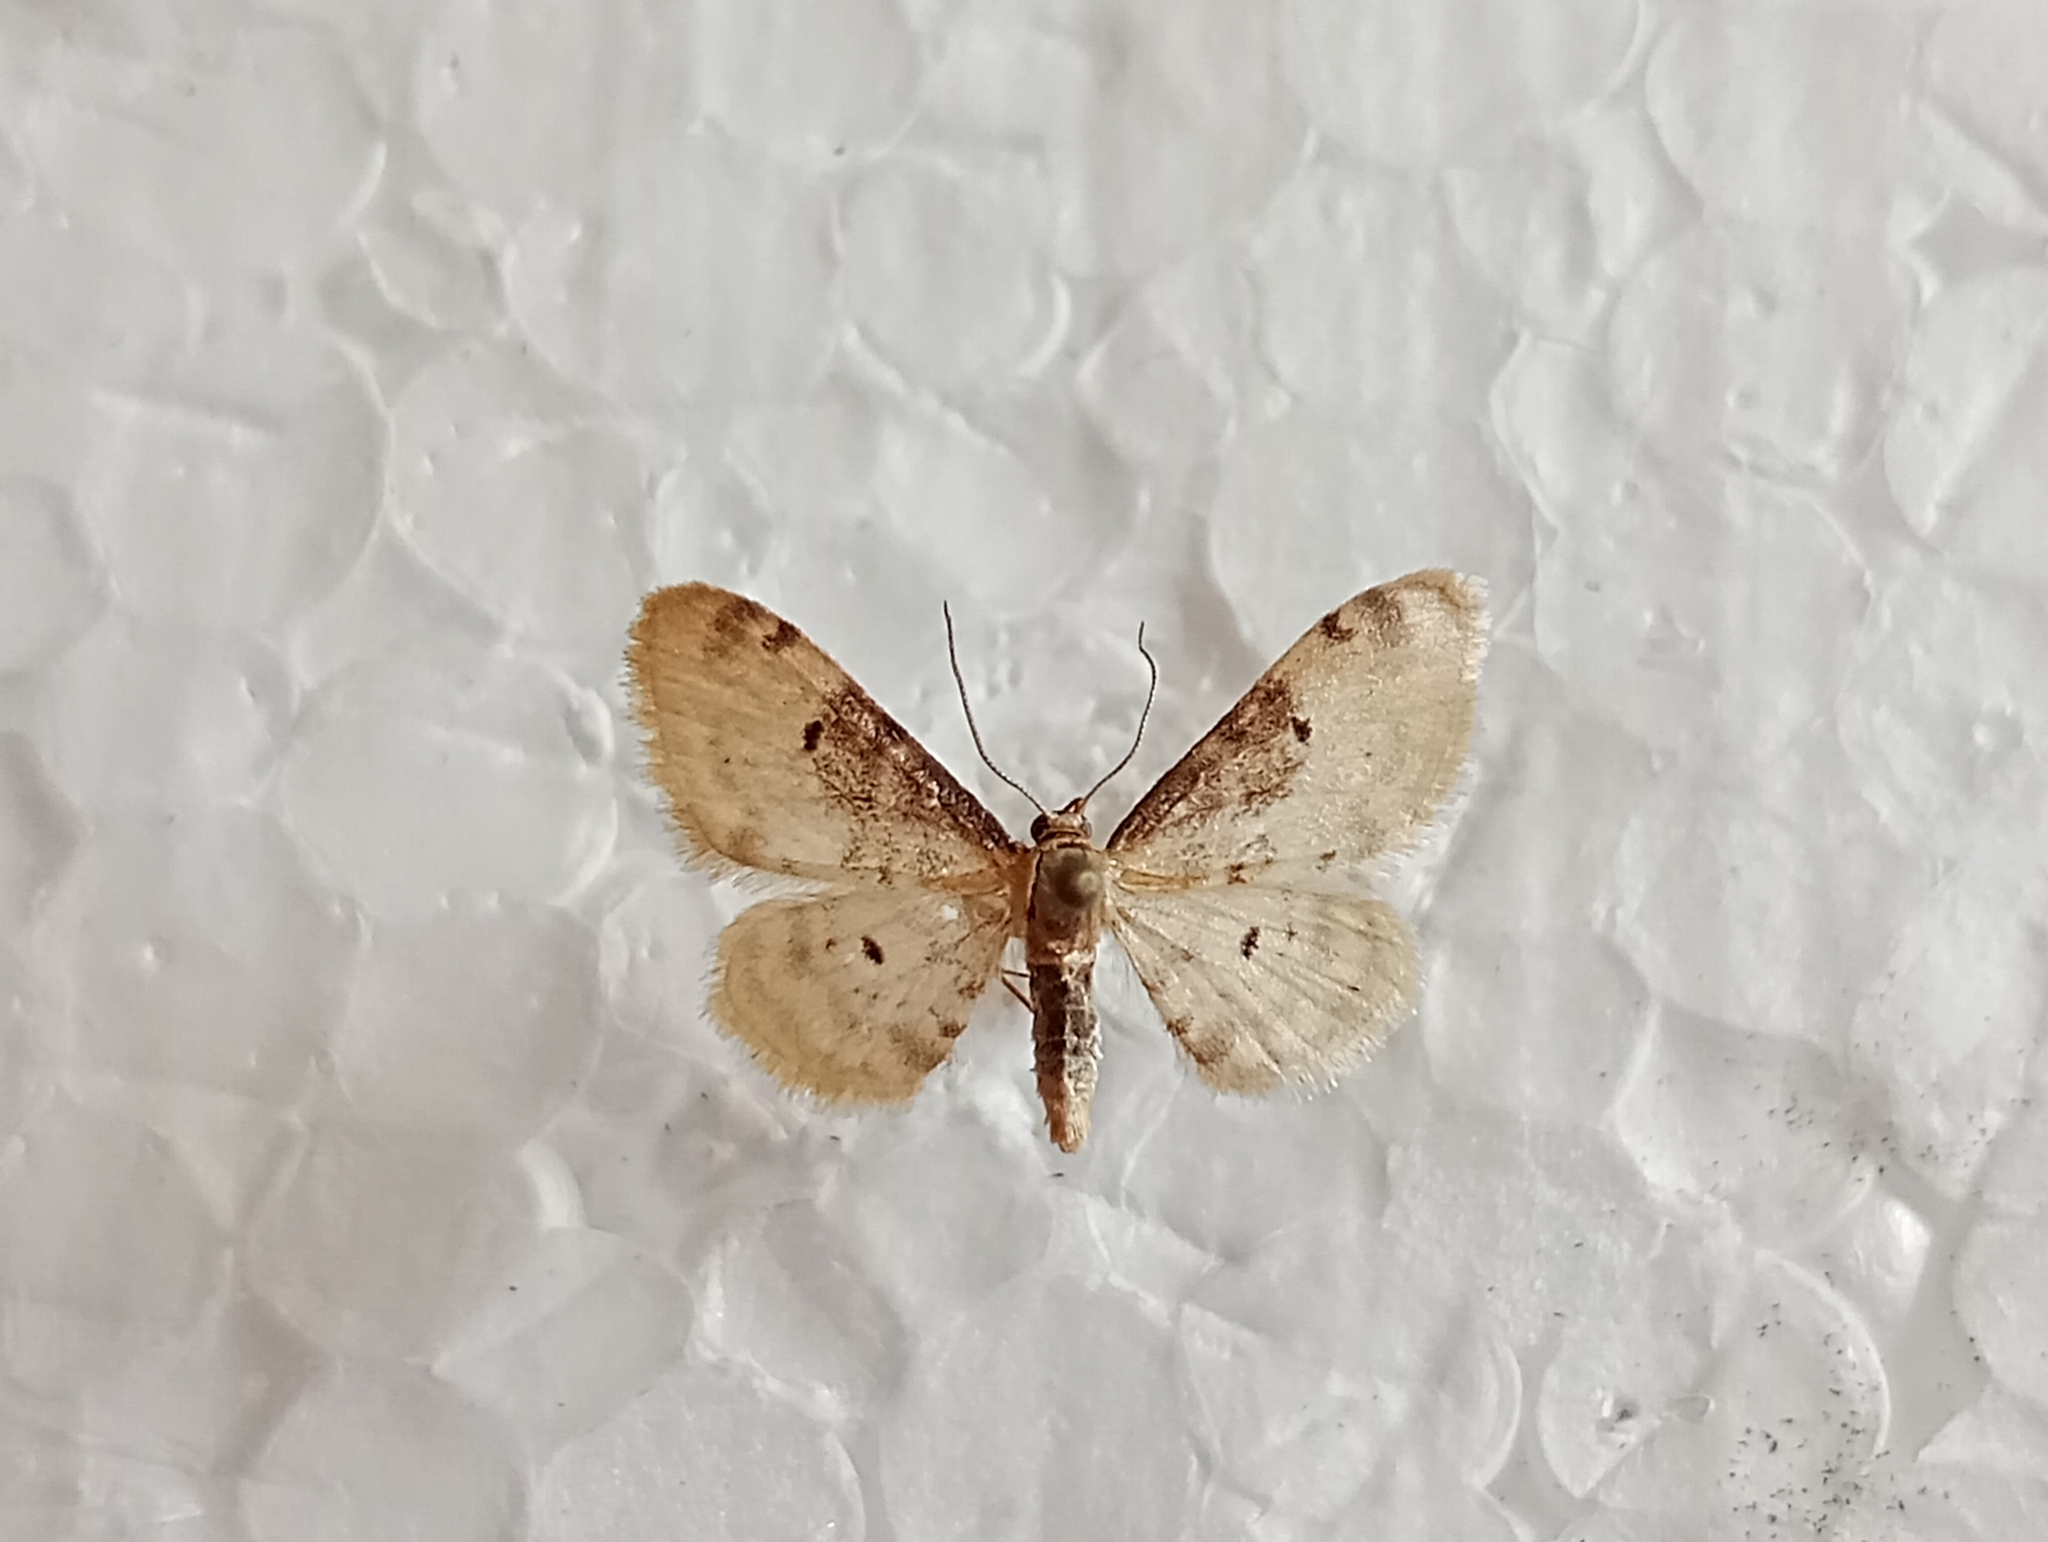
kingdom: Animalia
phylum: Arthropoda
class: Insecta
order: Lepidoptera
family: Geometridae
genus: Idaea
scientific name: Idaea filicata
